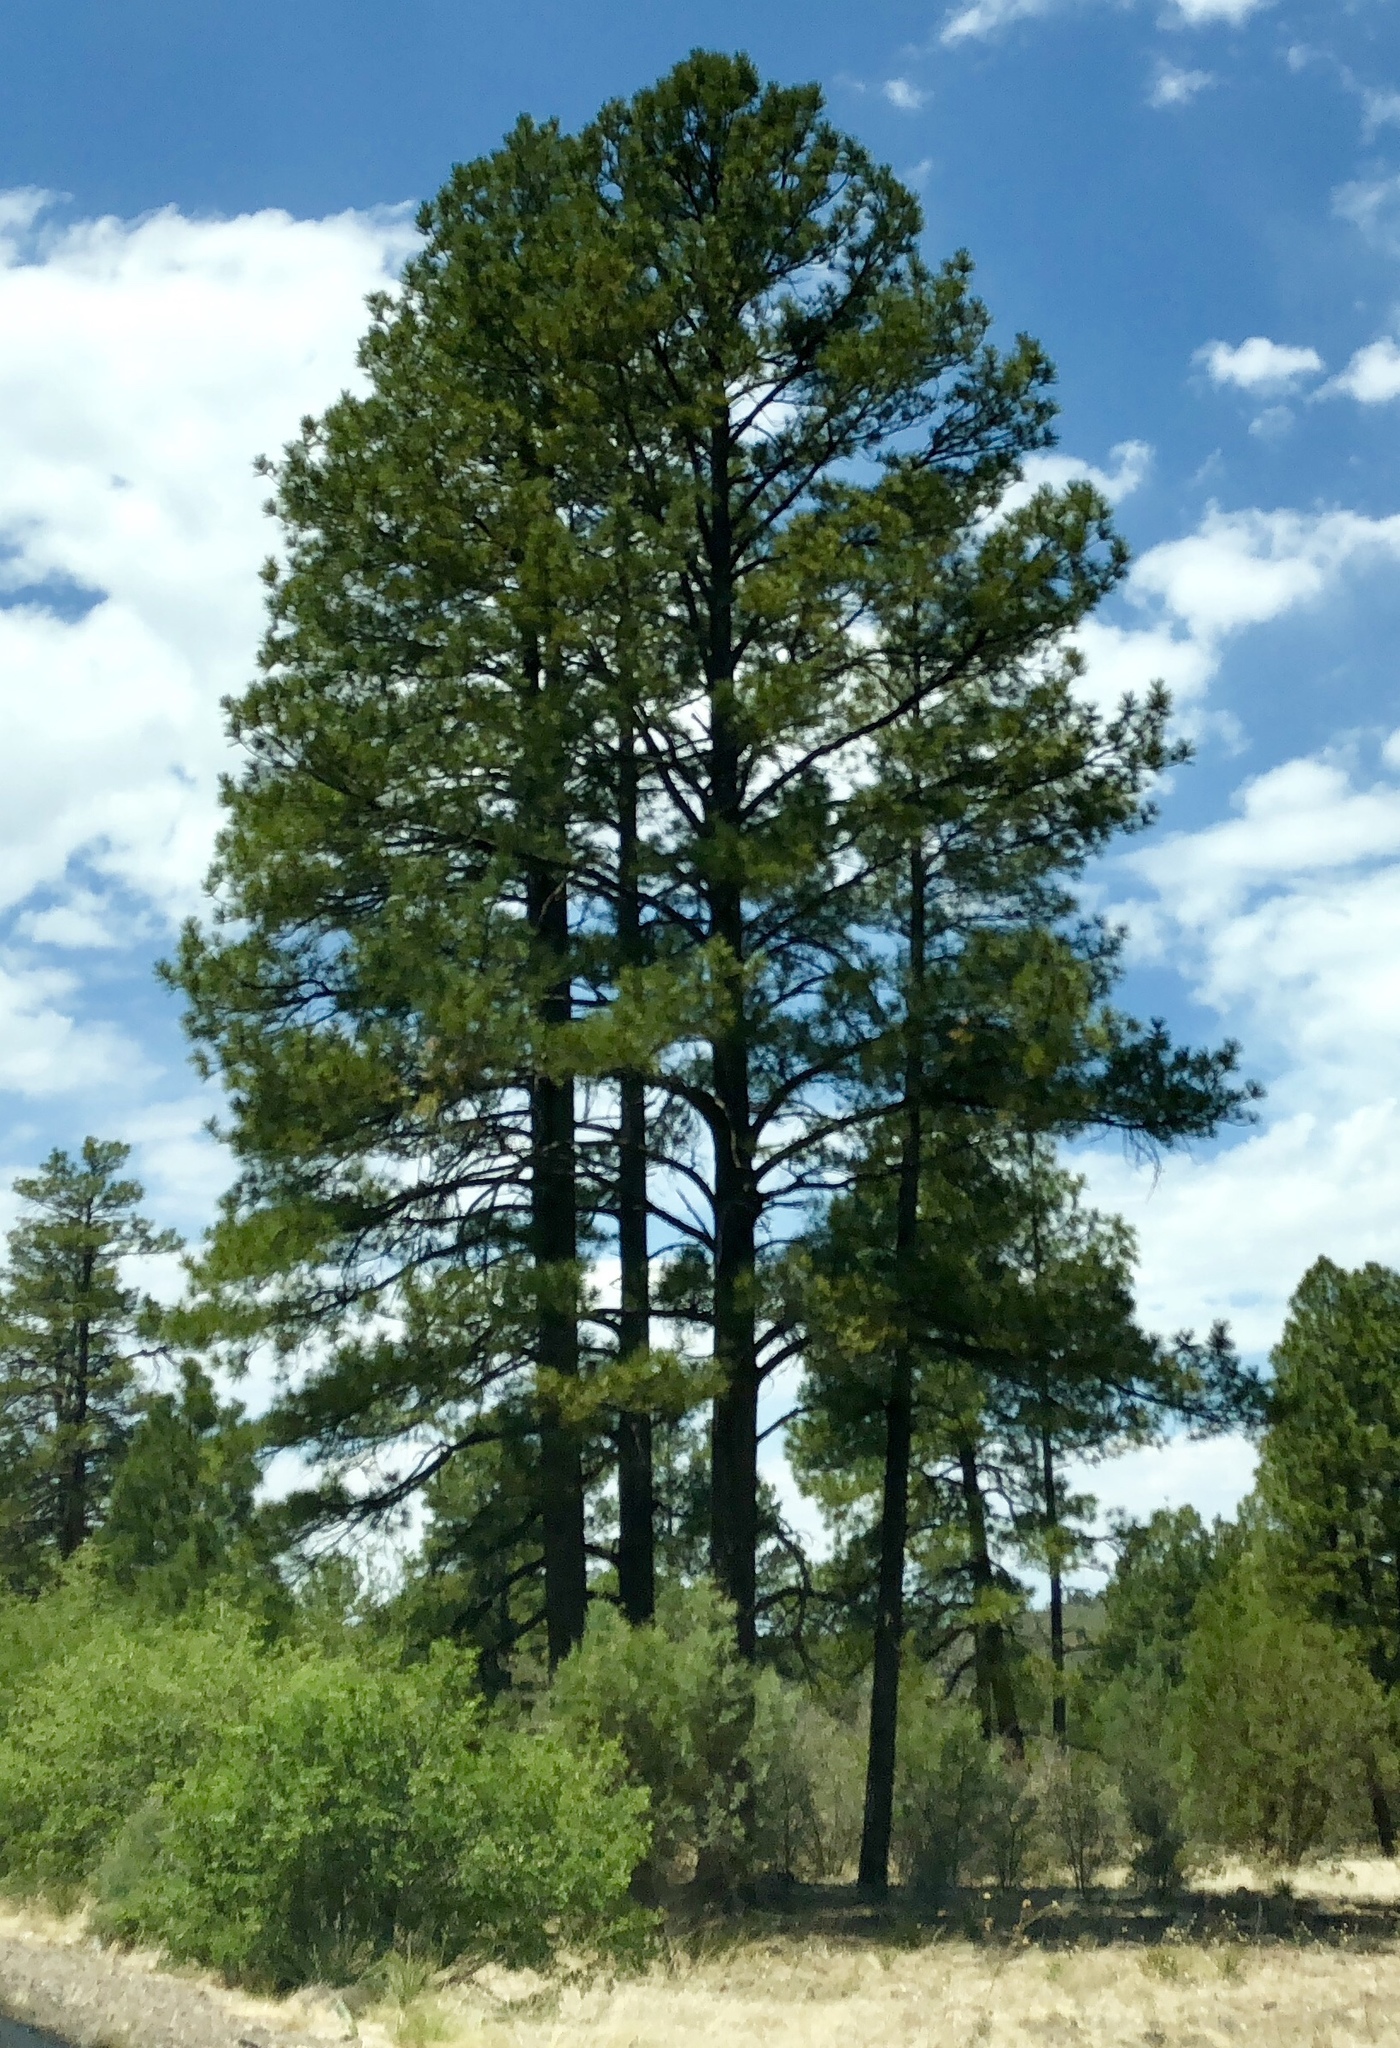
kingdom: Plantae
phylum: Tracheophyta
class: Pinopsida
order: Pinales
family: Pinaceae
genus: Pinus
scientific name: Pinus ponderosa
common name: Western yellow-pine
